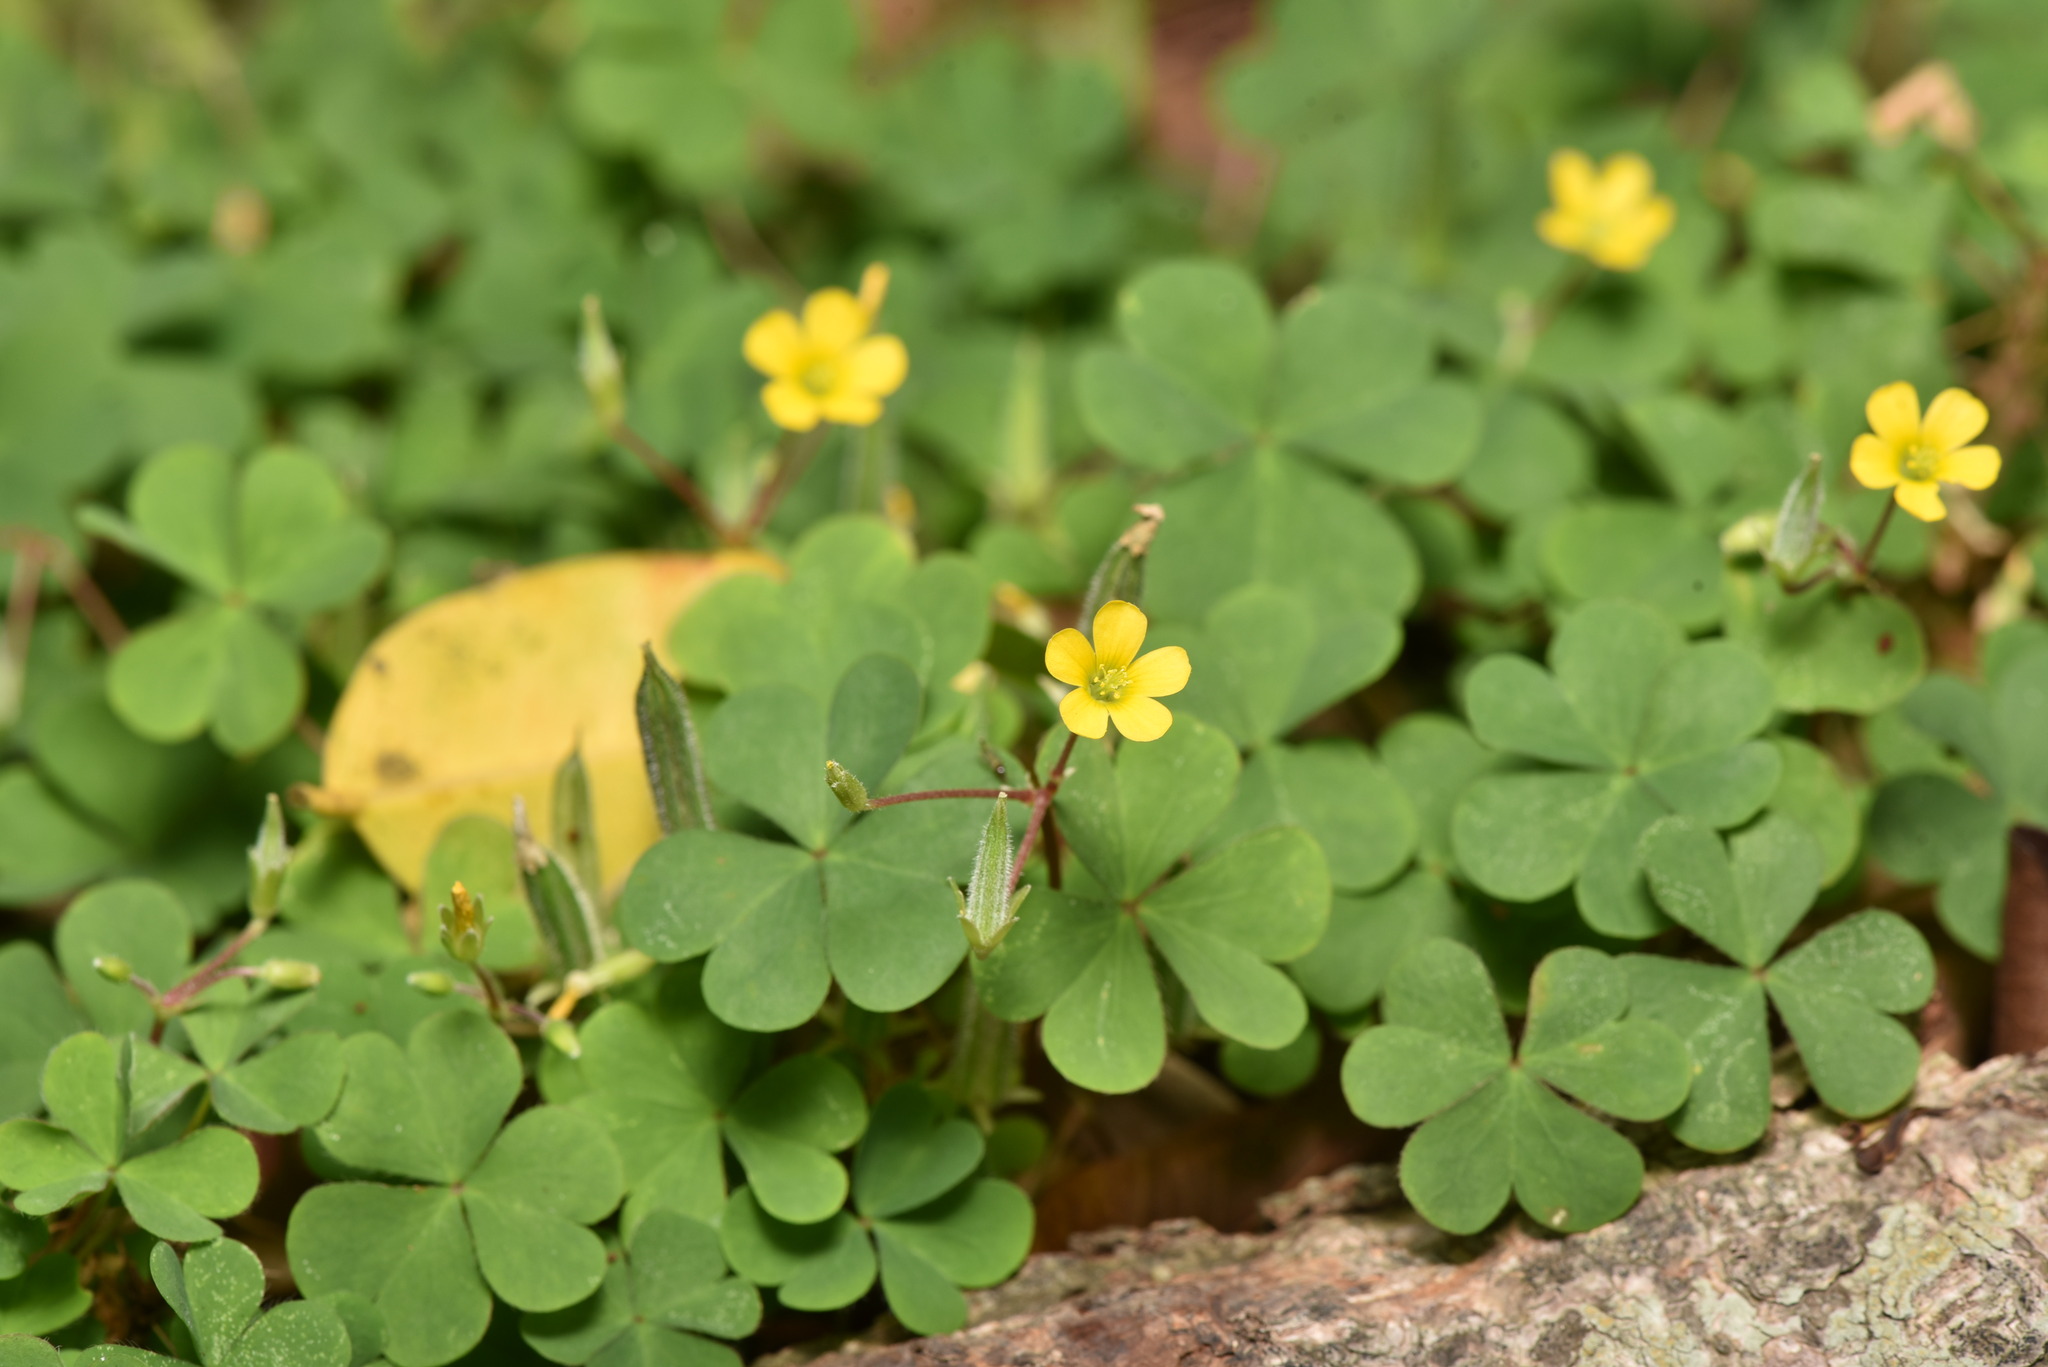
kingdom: Plantae
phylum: Tracheophyta
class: Magnoliopsida
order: Oxalidales
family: Oxalidaceae
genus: Oxalis
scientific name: Oxalis corniculata
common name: Procumbent yellow-sorrel
